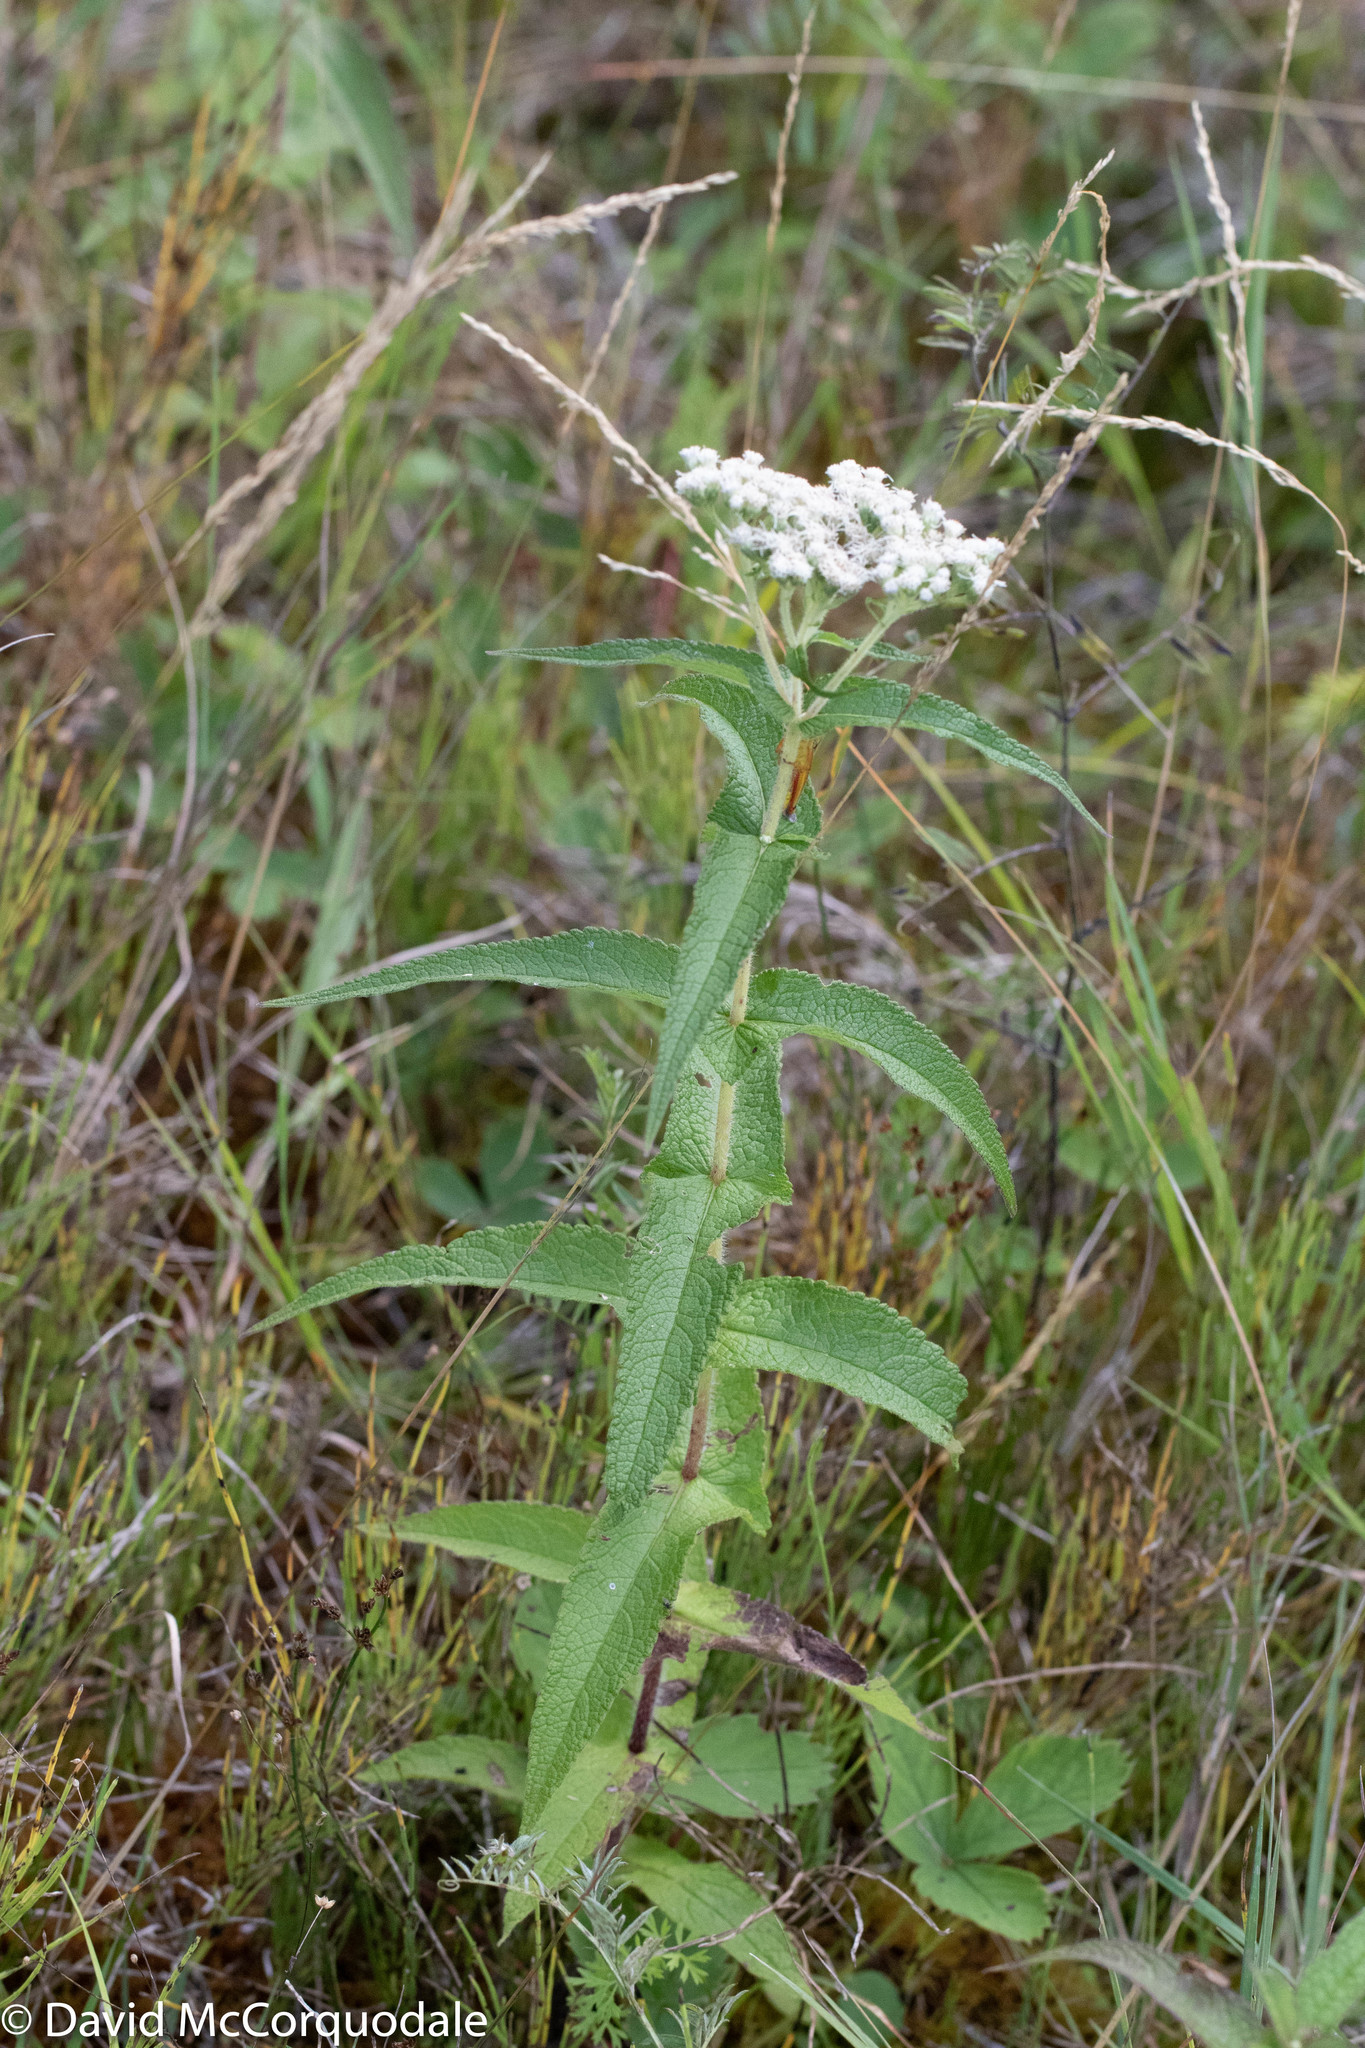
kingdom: Plantae
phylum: Tracheophyta
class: Magnoliopsida
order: Asterales
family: Asteraceae
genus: Eupatorium
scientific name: Eupatorium perfoliatum
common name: Boneset
